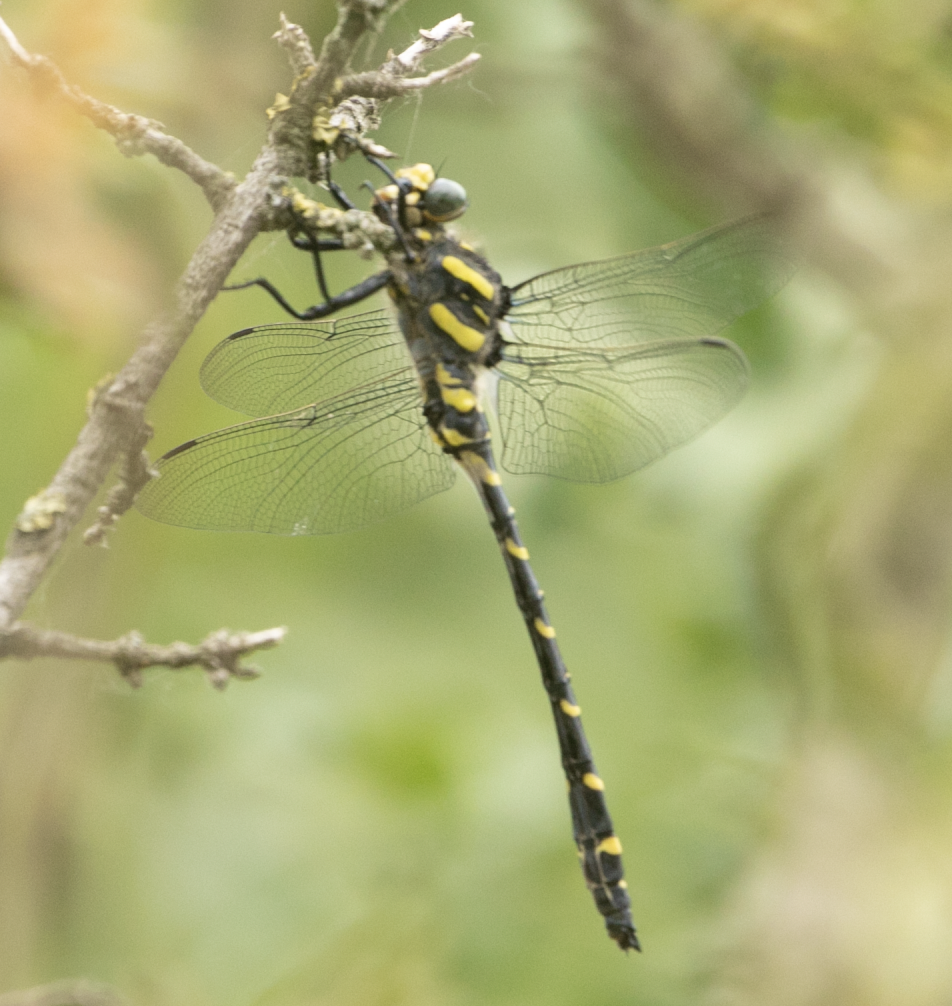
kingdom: Animalia
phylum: Arthropoda
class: Insecta
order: Odonata
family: Cordulegastridae
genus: Cordulegaster
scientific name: Cordulegaster boltonii
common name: Golden-ringed dragonfly
